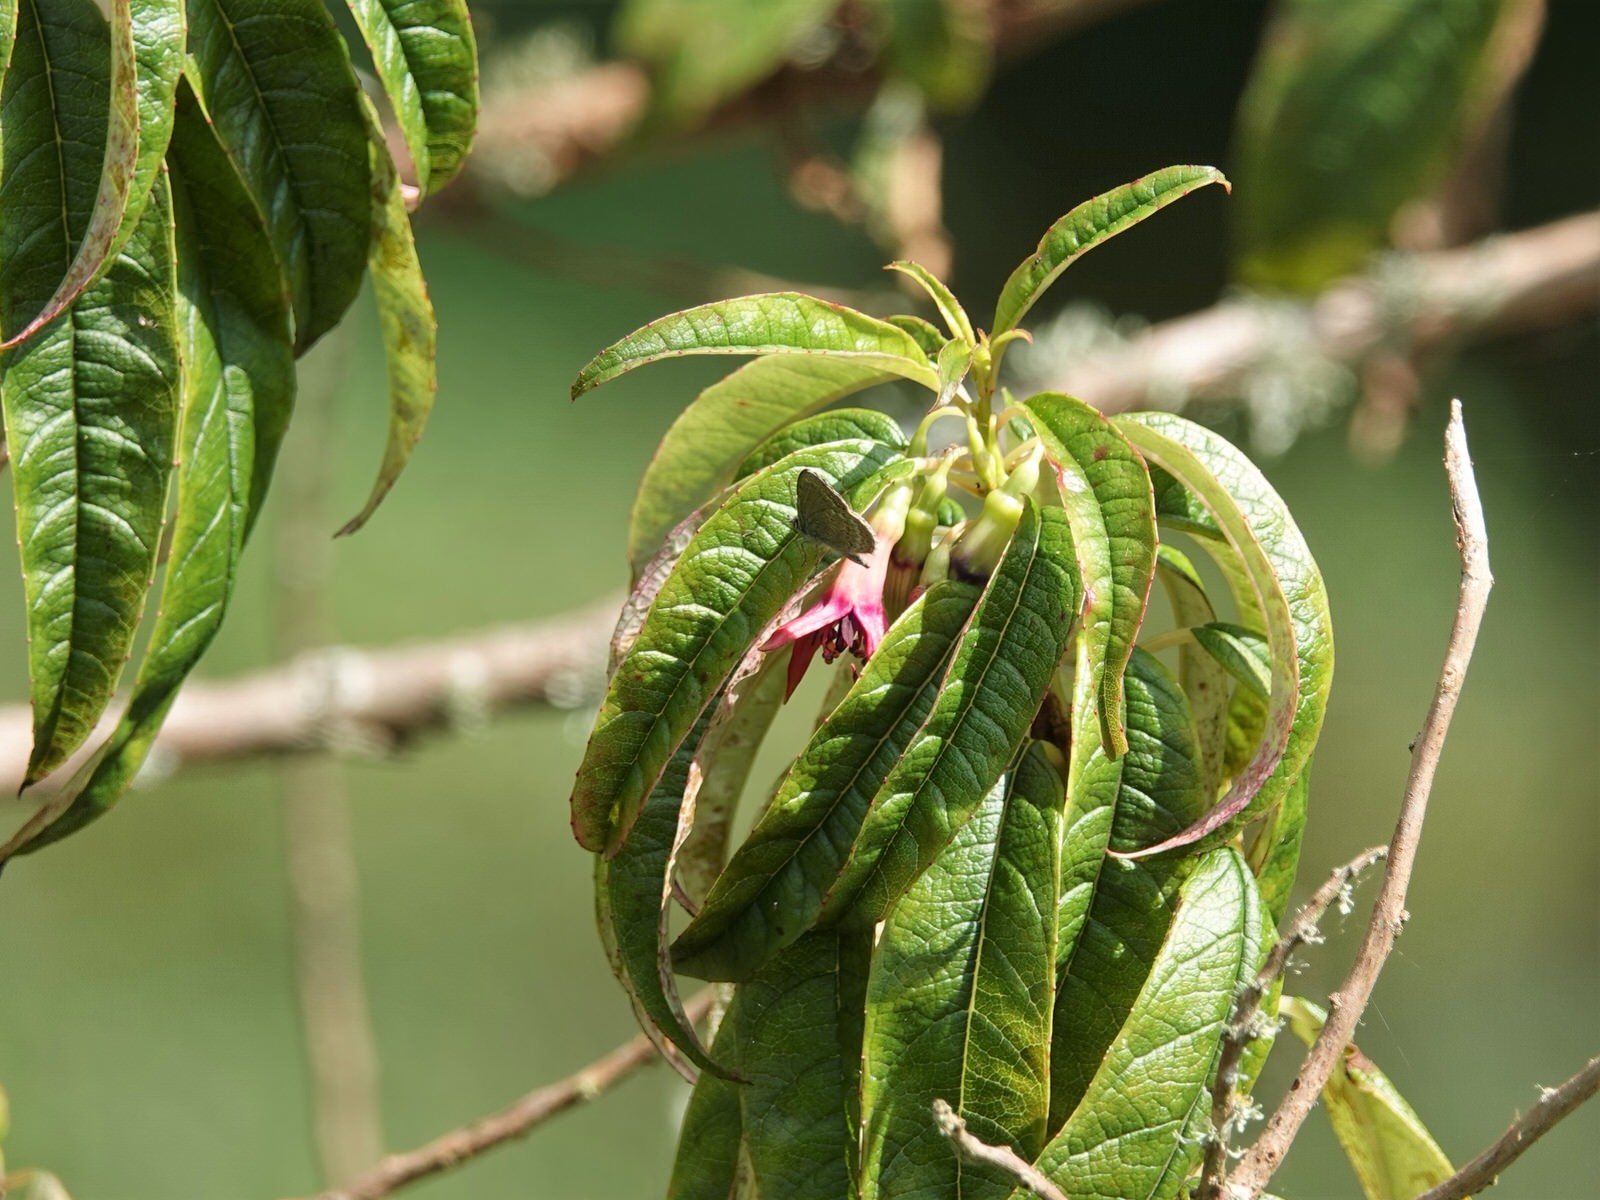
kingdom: Plantae
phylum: Tracheophyta
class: Magnoliopsida
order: Myrtales
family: Onagraceae
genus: Fuchsia
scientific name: Fuchsia excorticata
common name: Tree fuchsia
